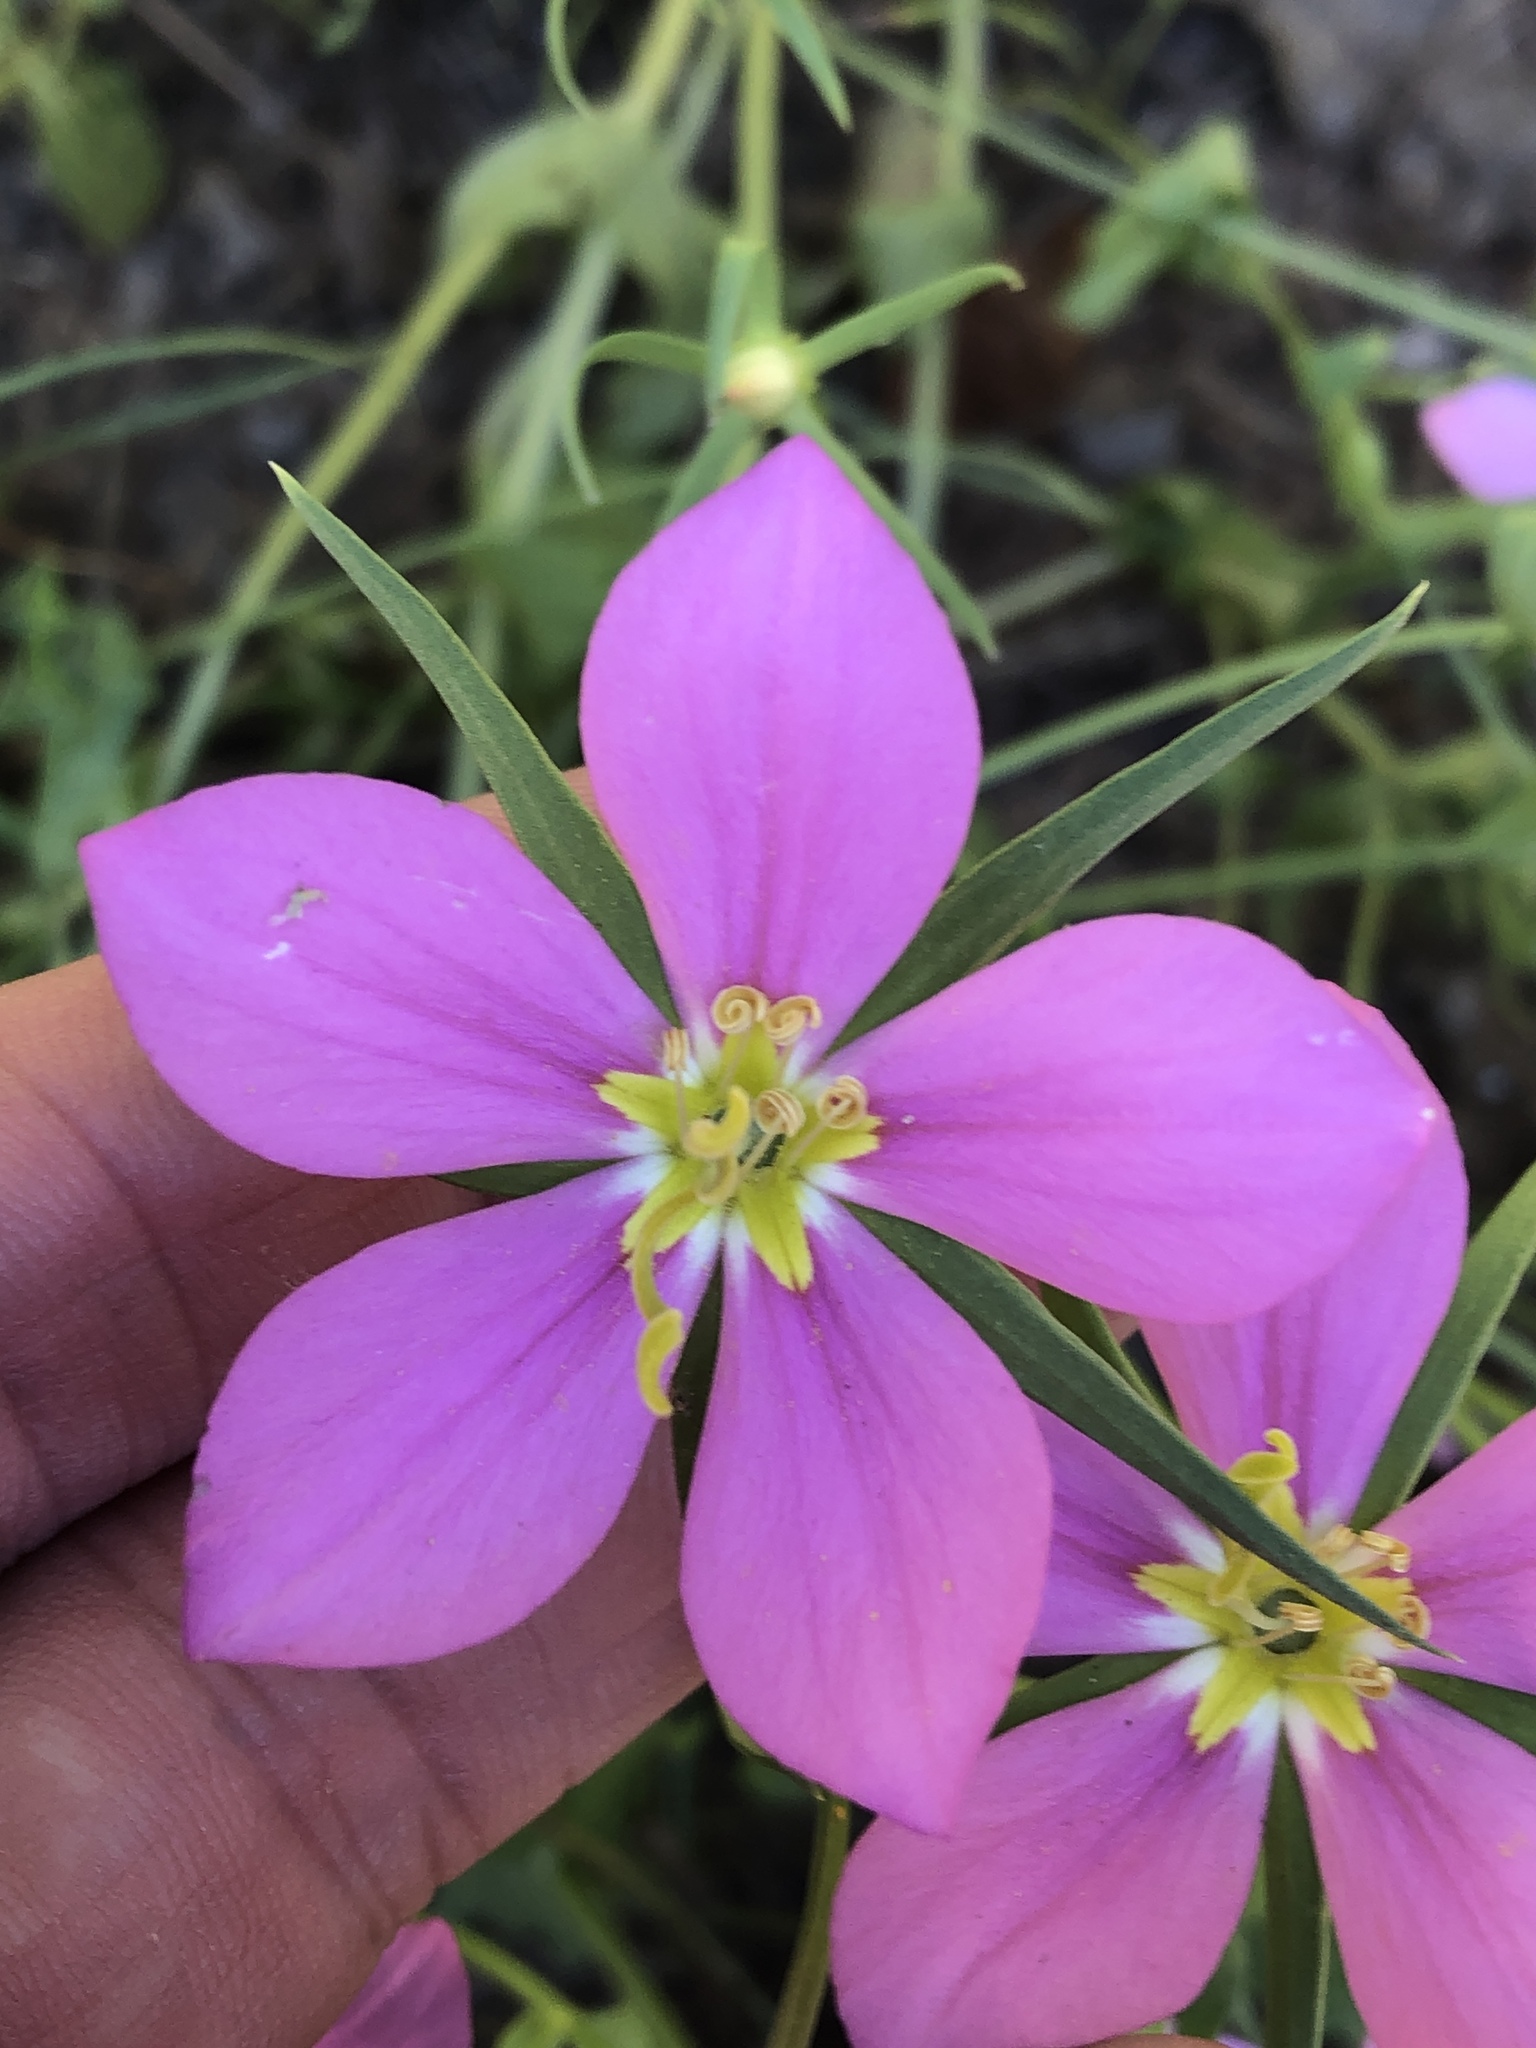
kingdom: Plantae
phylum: Tracheophyta
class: Magnoliopsida
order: Gentianales
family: Gentianaceae
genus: Sabatia
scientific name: Sabatia campestris
